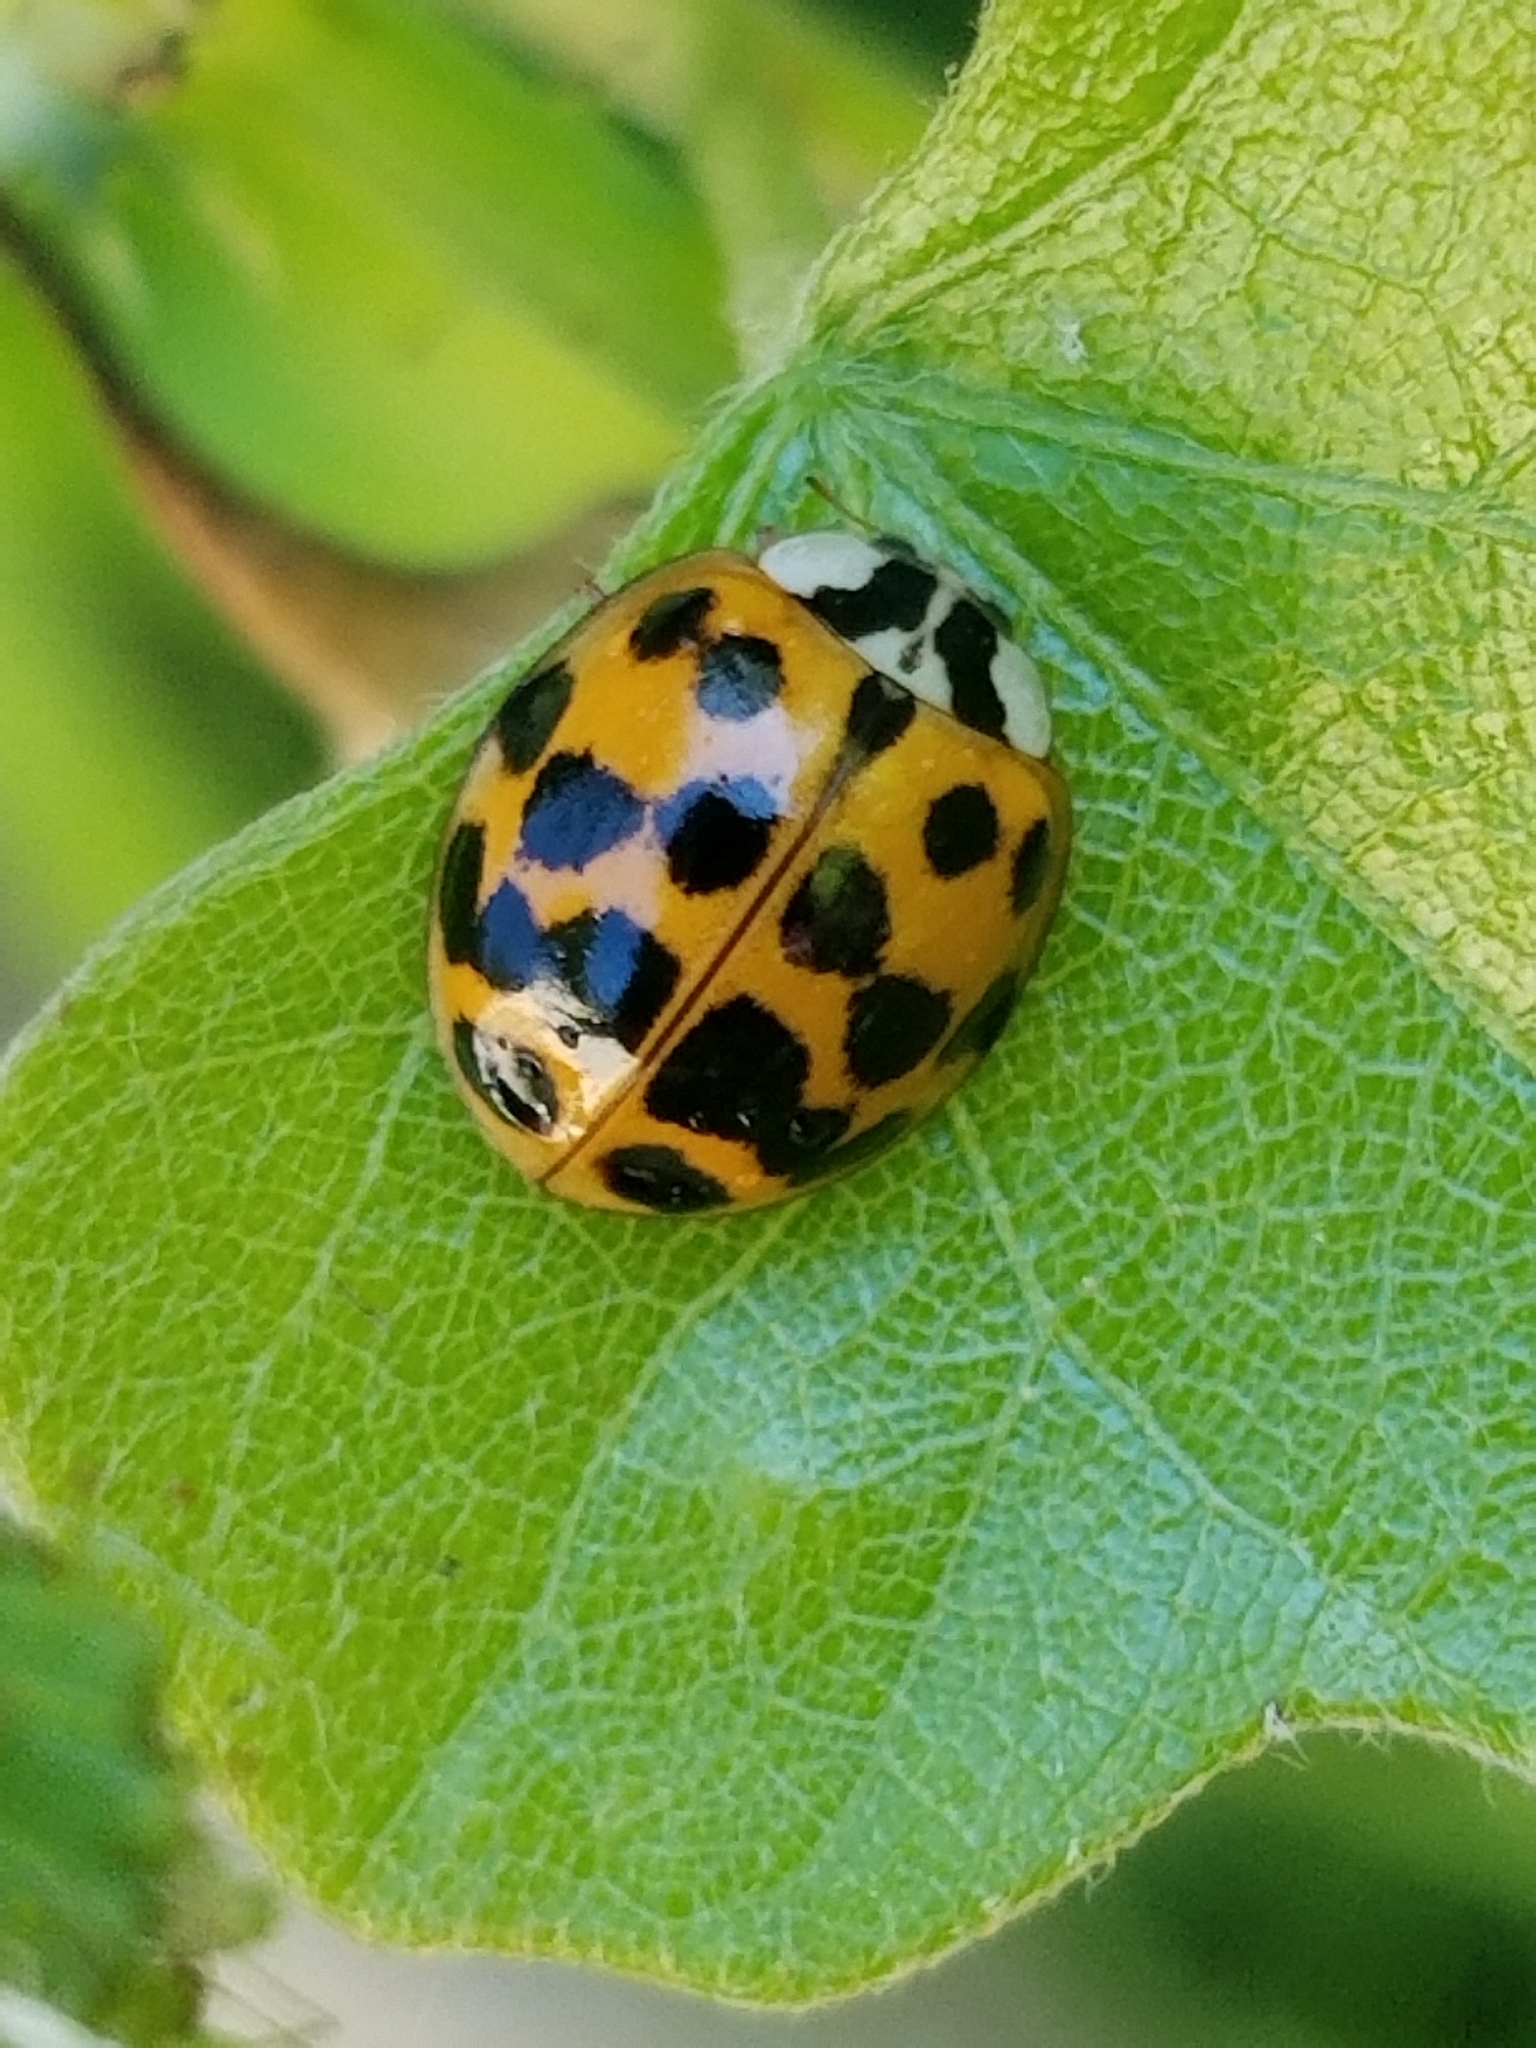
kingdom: Animalia
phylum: Arthropoda
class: Insecta
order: Coleoptera
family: Coccinellidae
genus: Harmonia
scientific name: Harmonia axyridis
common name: Harlequin ladybird
